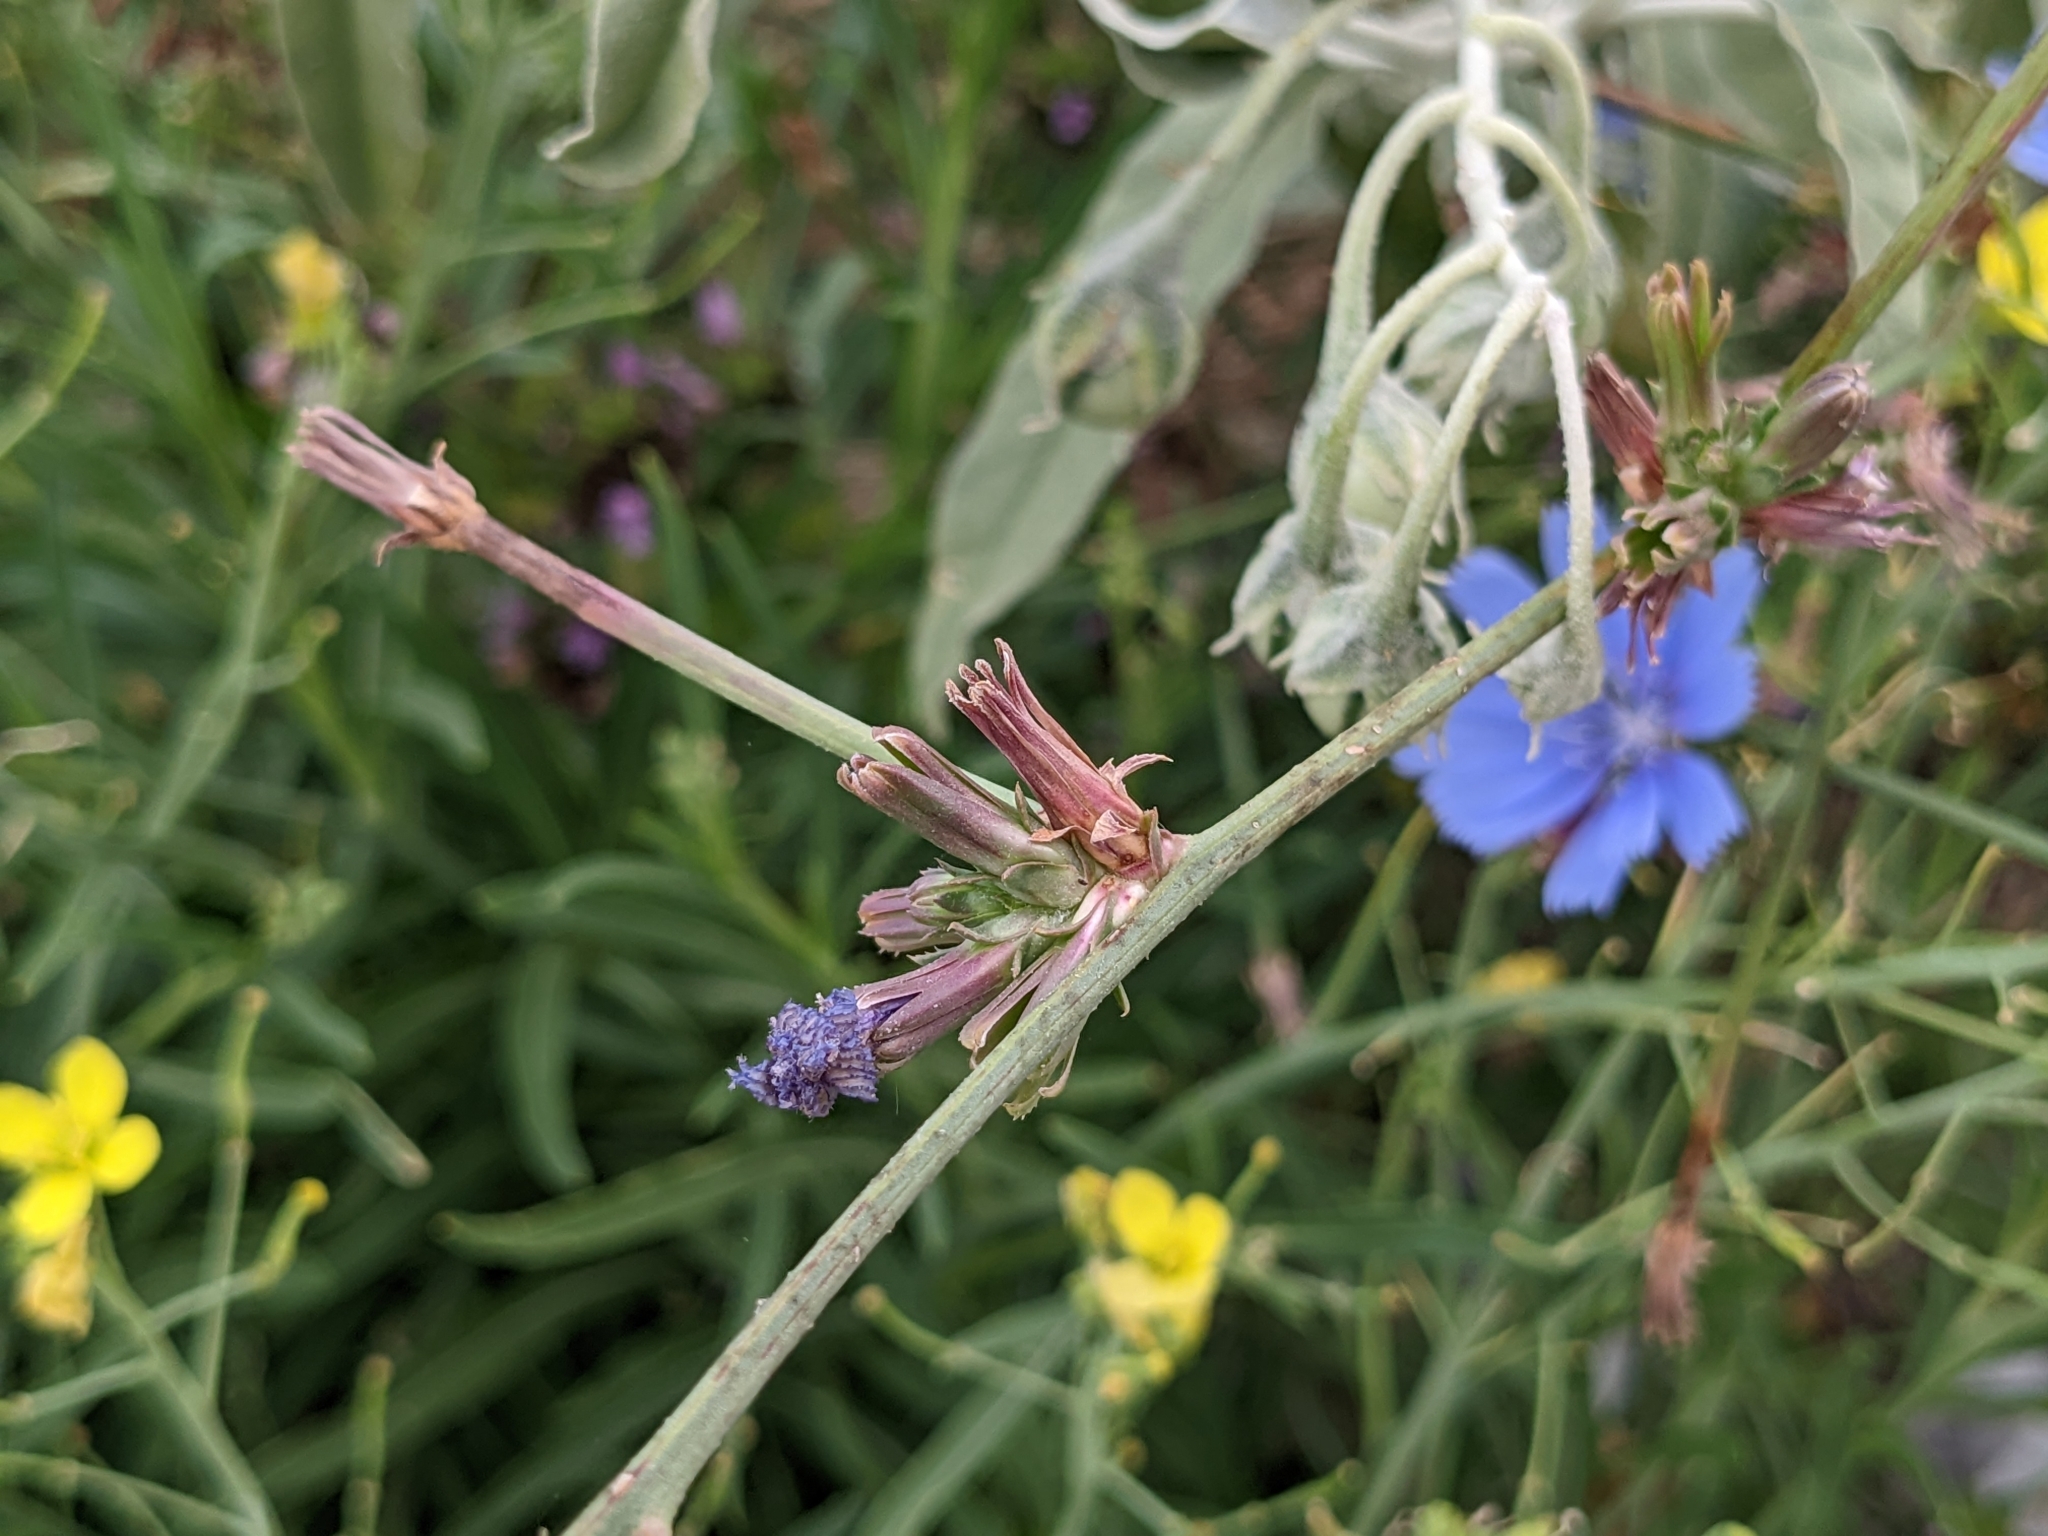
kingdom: Plantae
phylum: Tracheophyta
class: Magnoliopsida
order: Asterales
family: Asteraceae
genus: Cichorium
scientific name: Cichorium intybus
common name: Chicory
